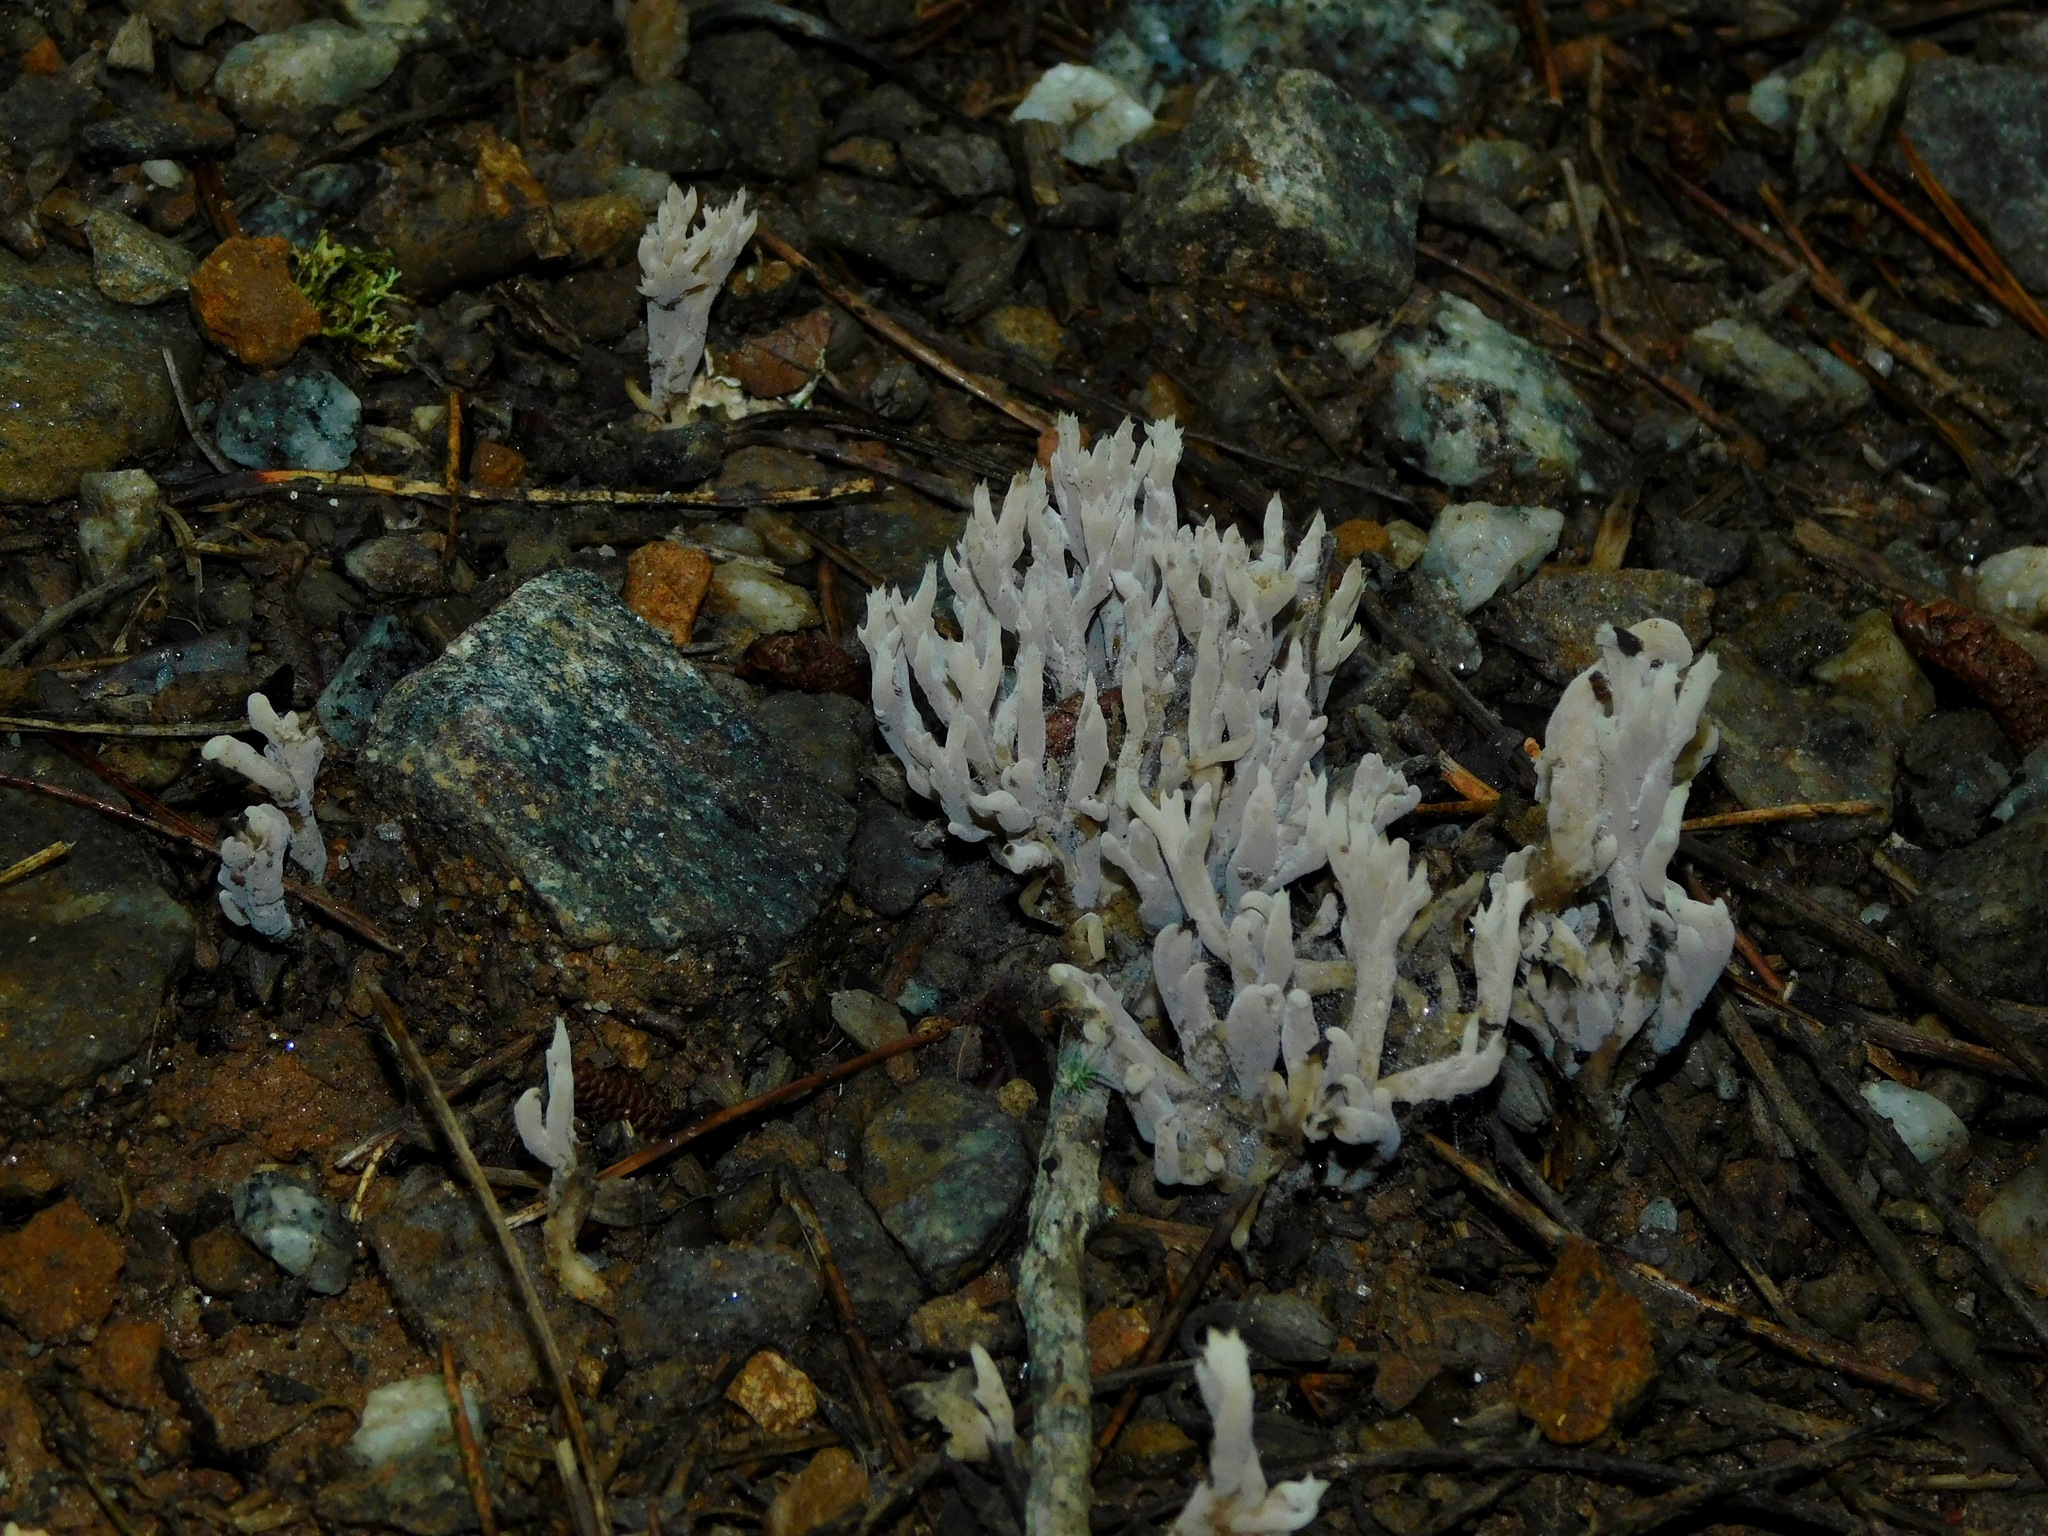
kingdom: Fungi
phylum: Basidiomycota
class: Agaricomycetes
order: Cantharellales
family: Hydnaceae
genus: Clavulina
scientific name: Clavulina coralloides
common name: Crested coral
